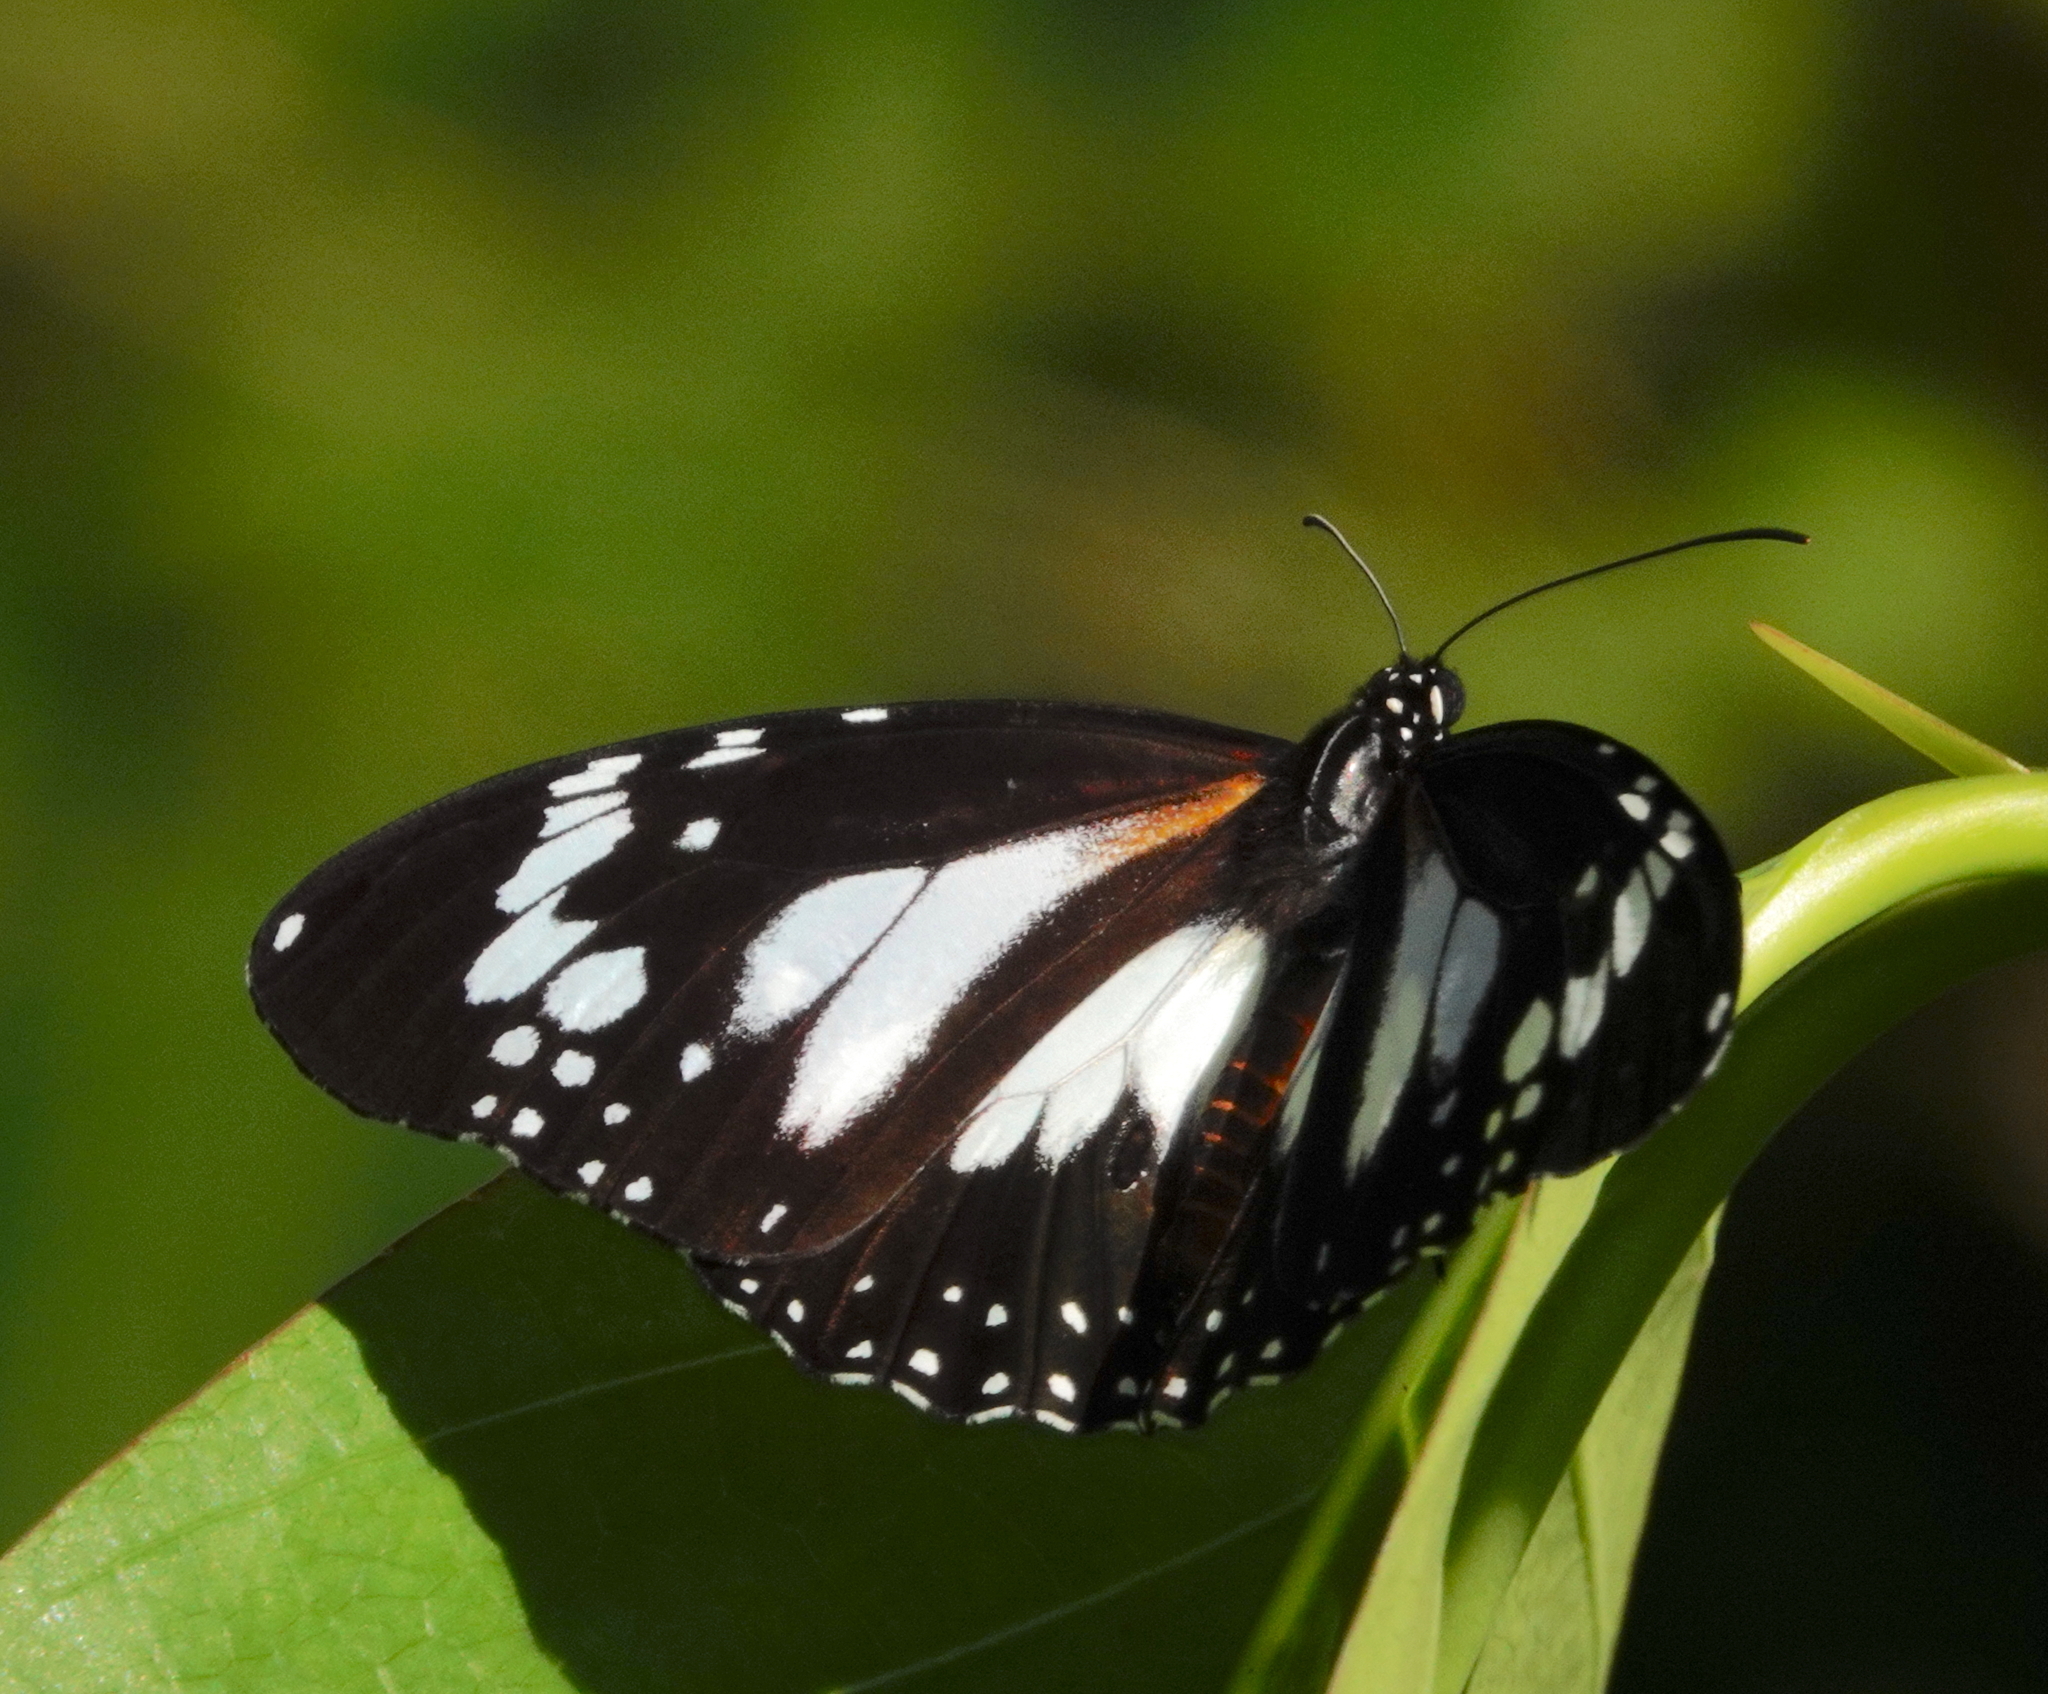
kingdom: Animalia
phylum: Arthropoda
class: Insecta
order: Lepidoptera
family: Nymphalidae
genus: Danaus
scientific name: Danaus affinis
